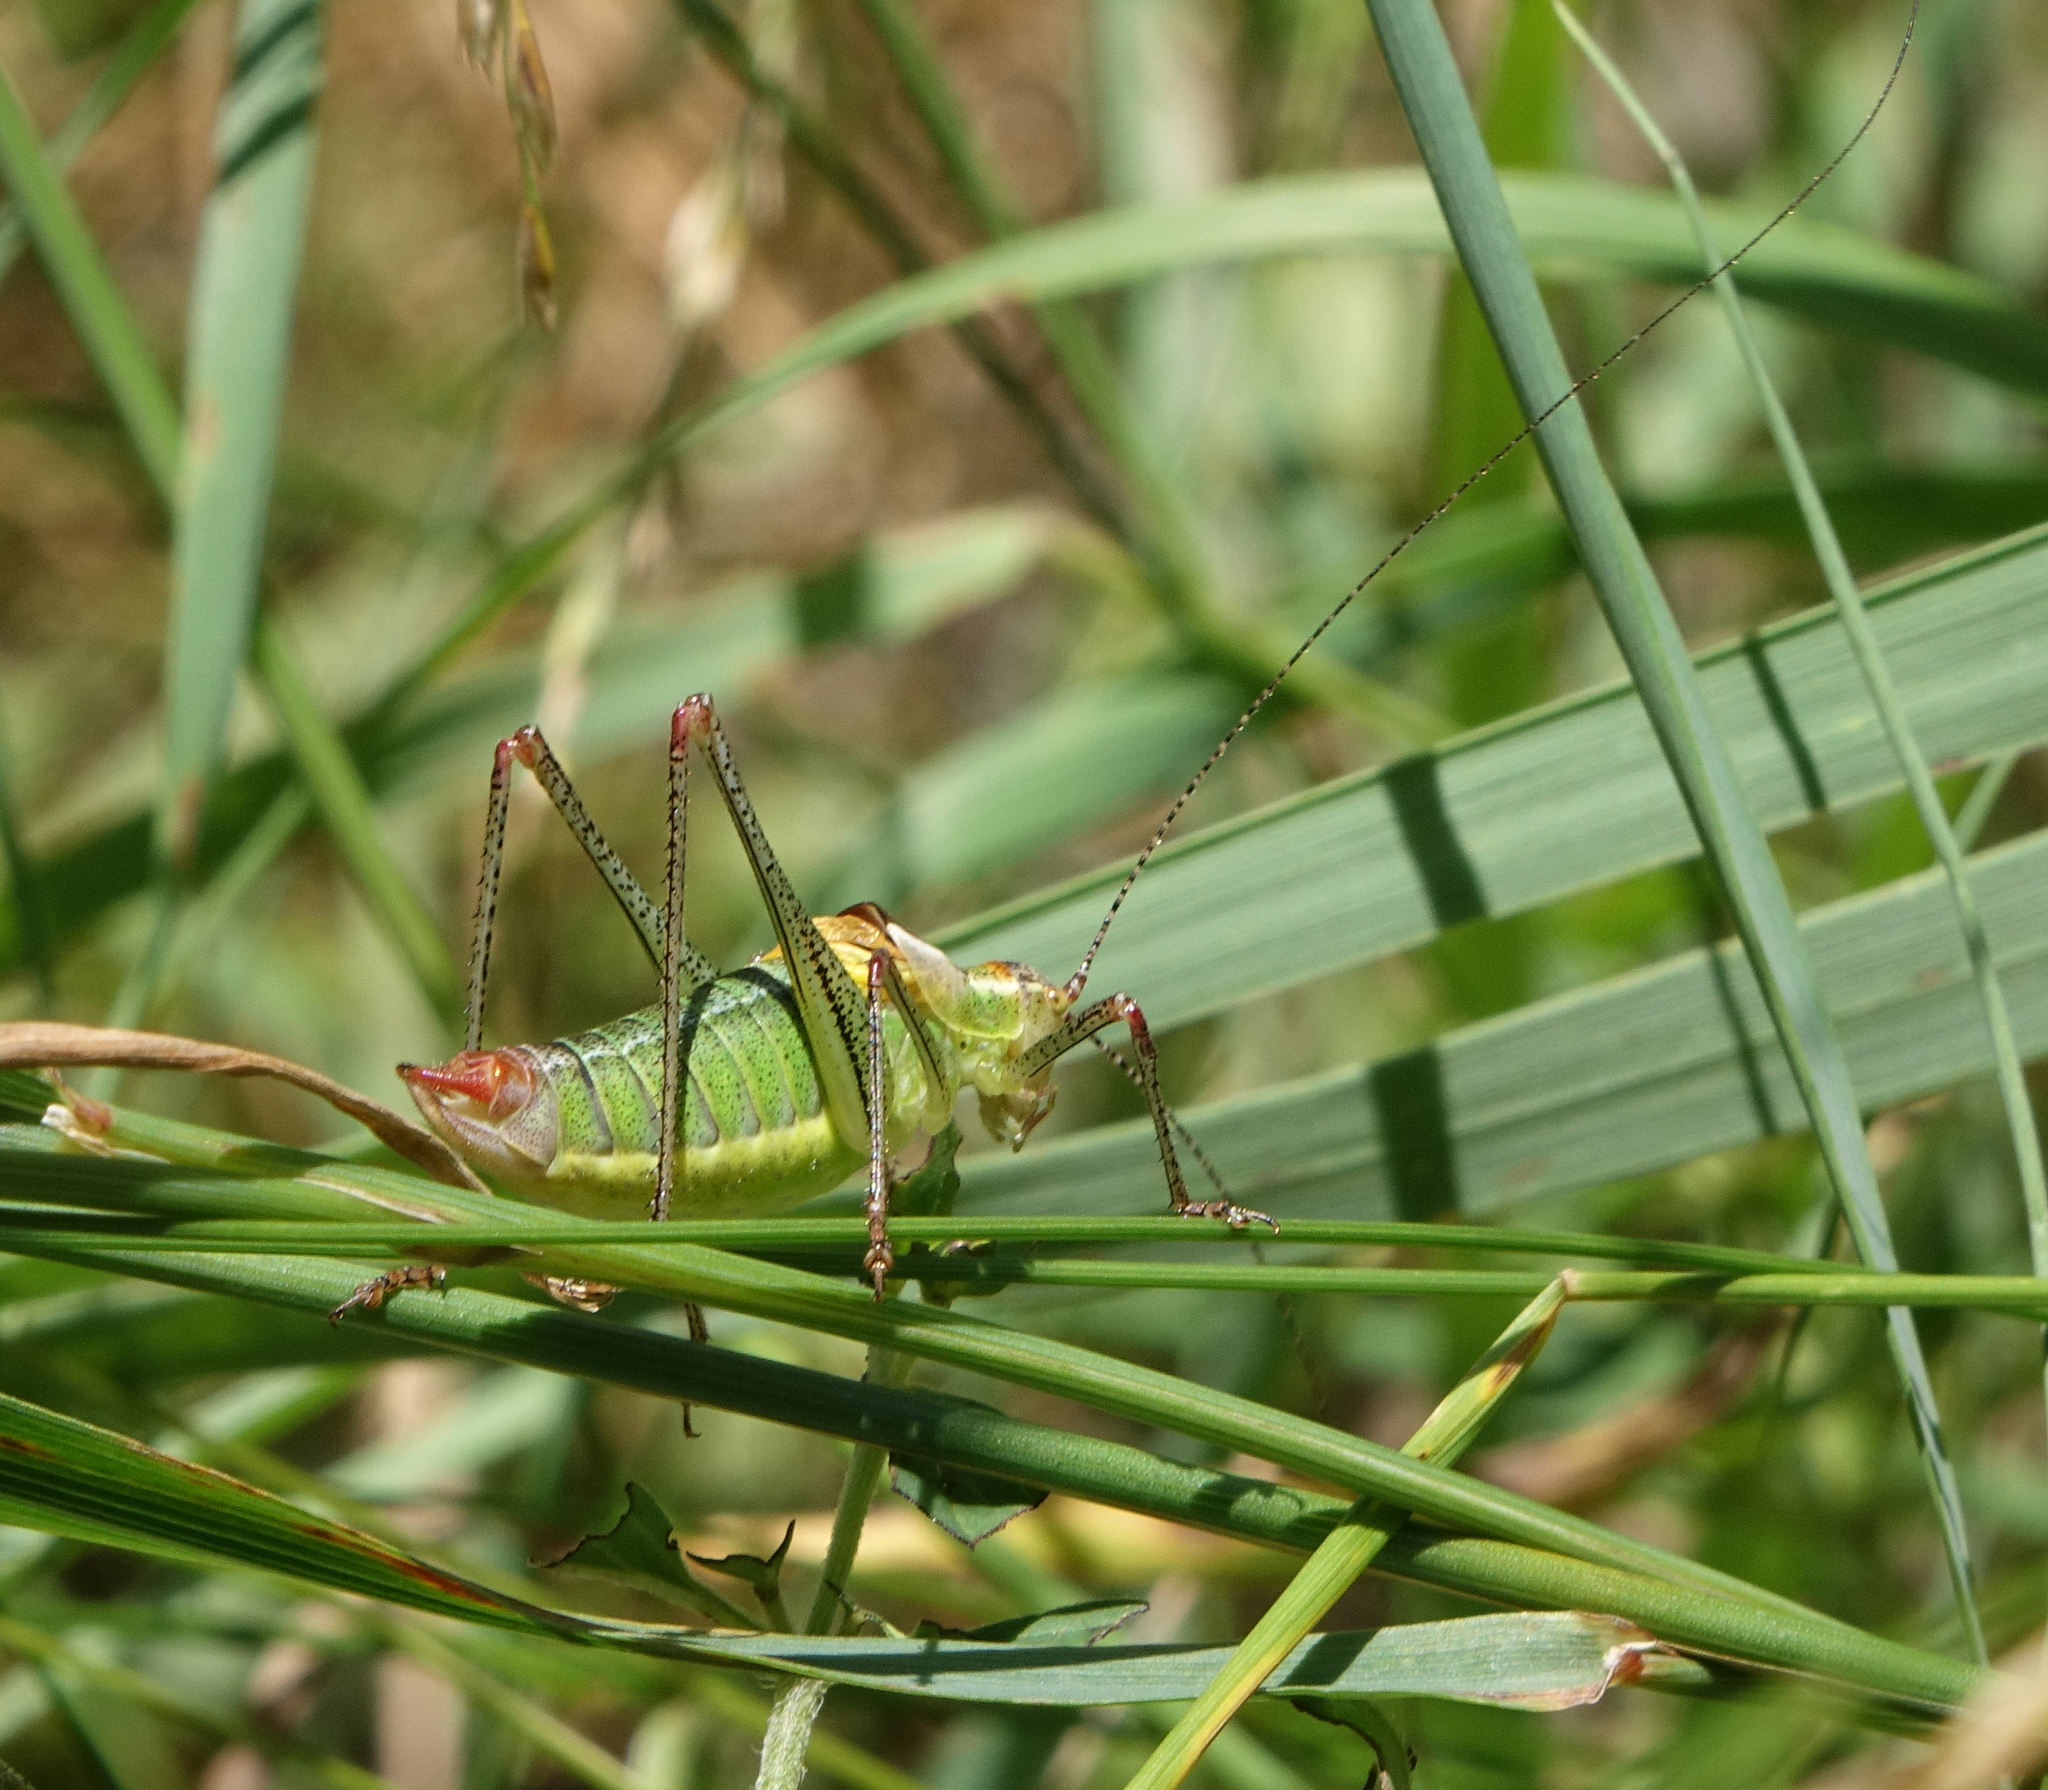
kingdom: Animalia
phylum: Arthropoda
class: Insecta
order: Orthoptera
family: Tettigoniidae
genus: Poecilimon
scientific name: Poecilimon geoktschajcus
